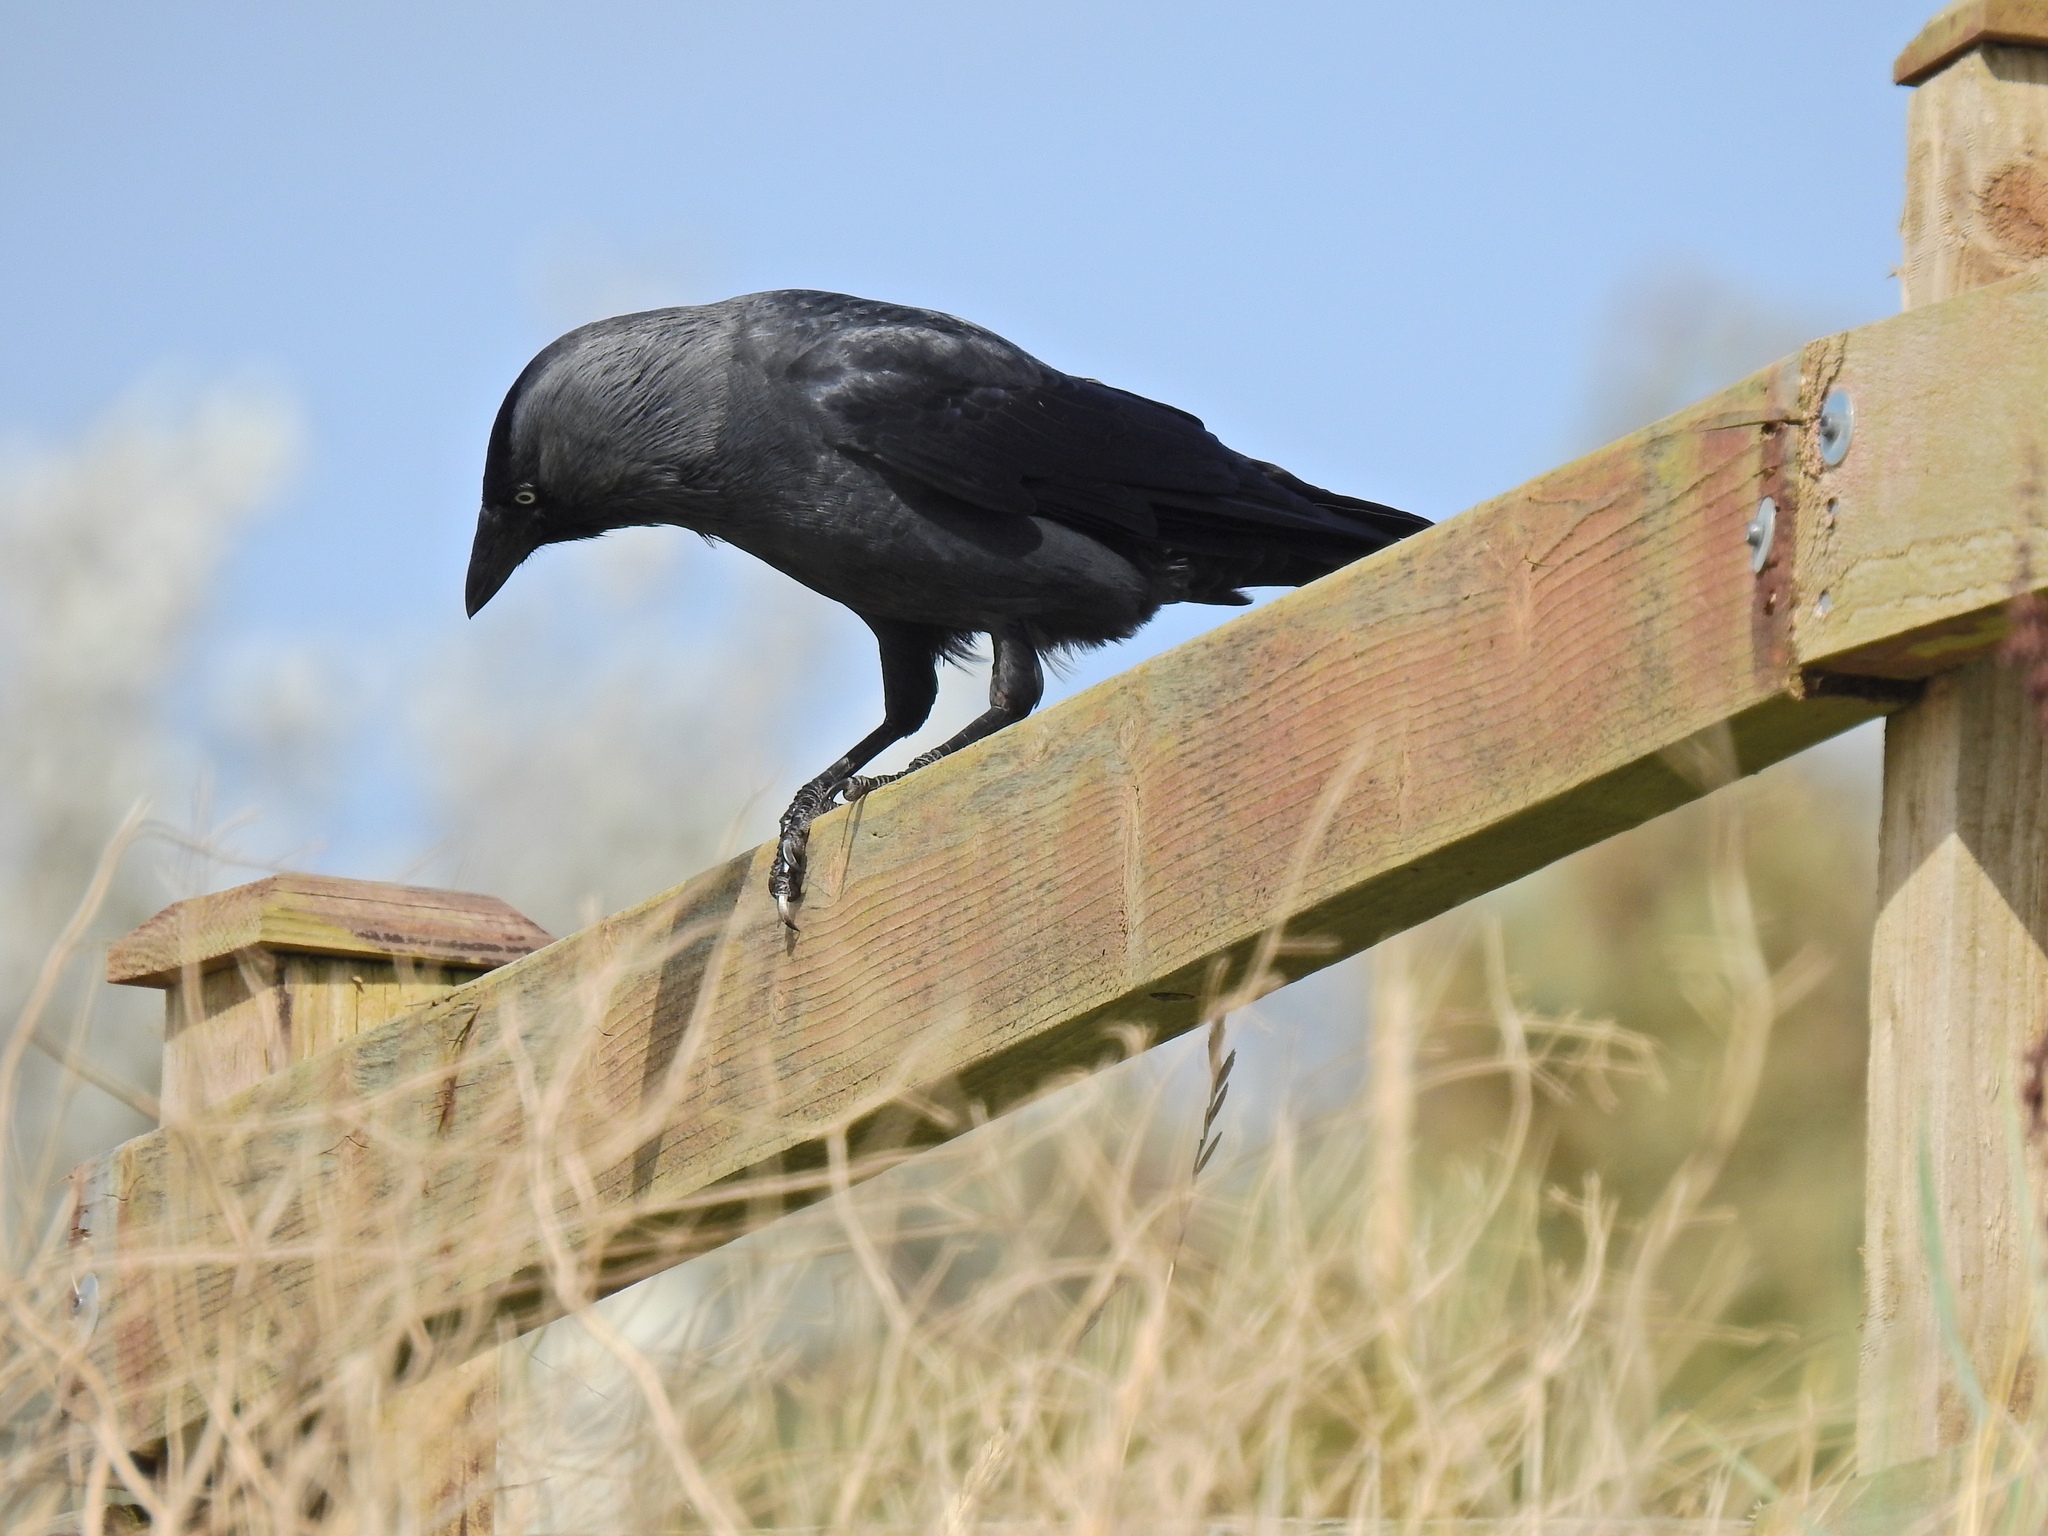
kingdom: Animalia
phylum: Chordata
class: Aves
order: Passeriformes
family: Corvidae
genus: Coloeus
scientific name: Coloeus monedula
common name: Western jackdaw
